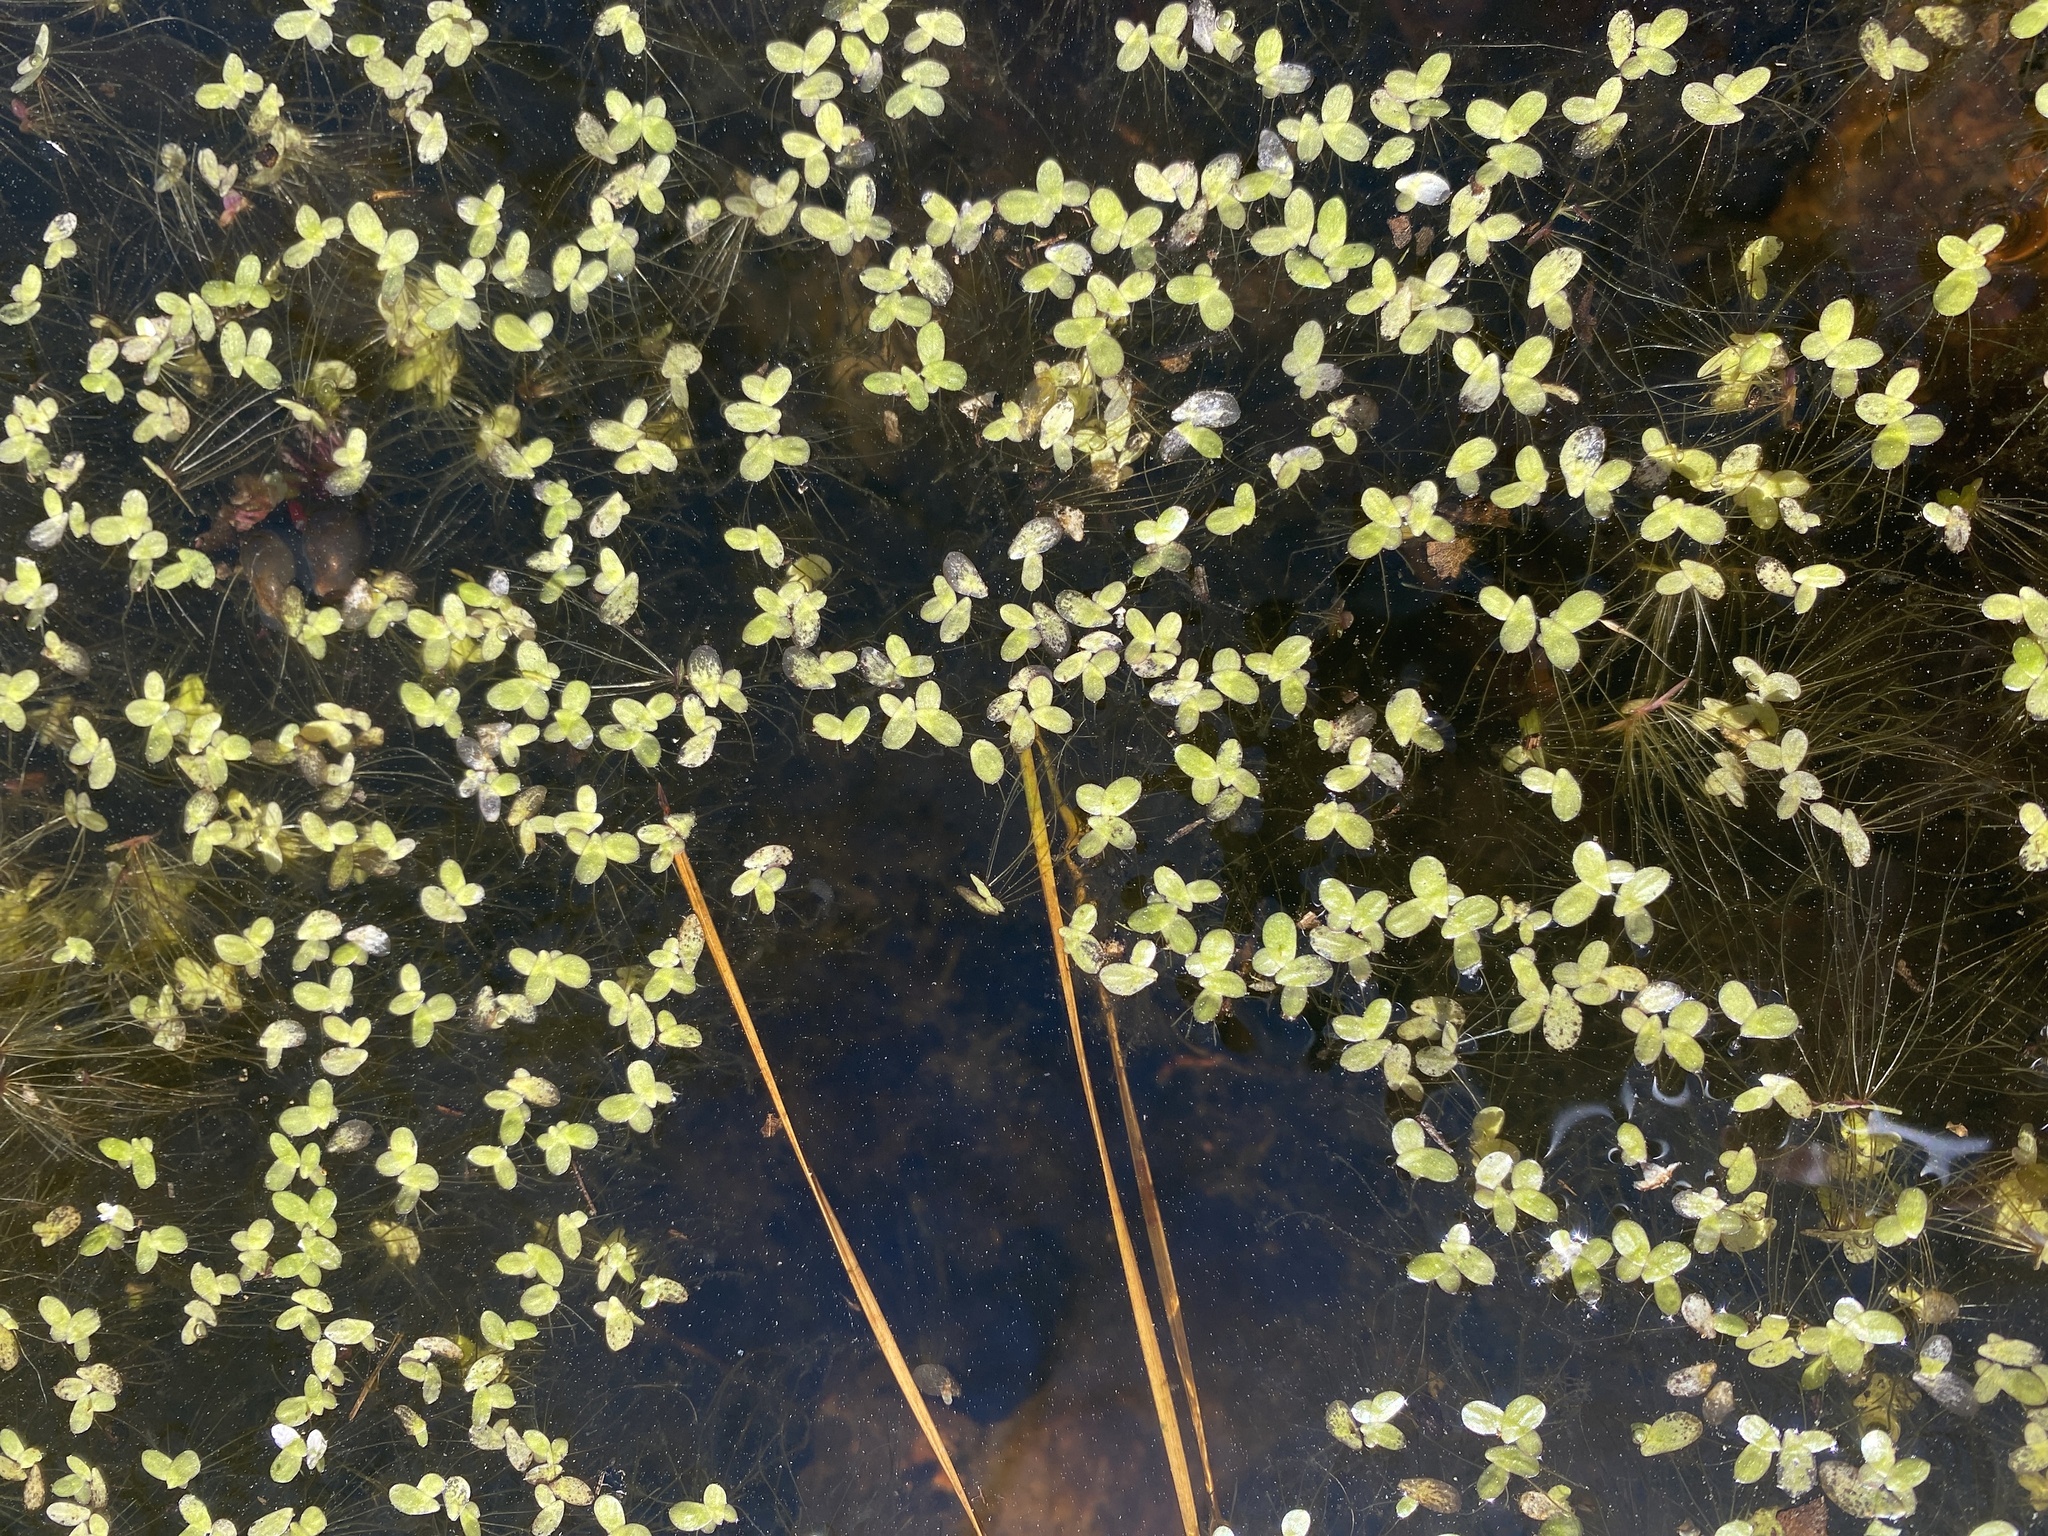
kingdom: Plantae
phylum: Tracheophyta
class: Liliopsida
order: Alismatales
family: Araceae
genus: Spirodela
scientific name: Spirodela punctata
